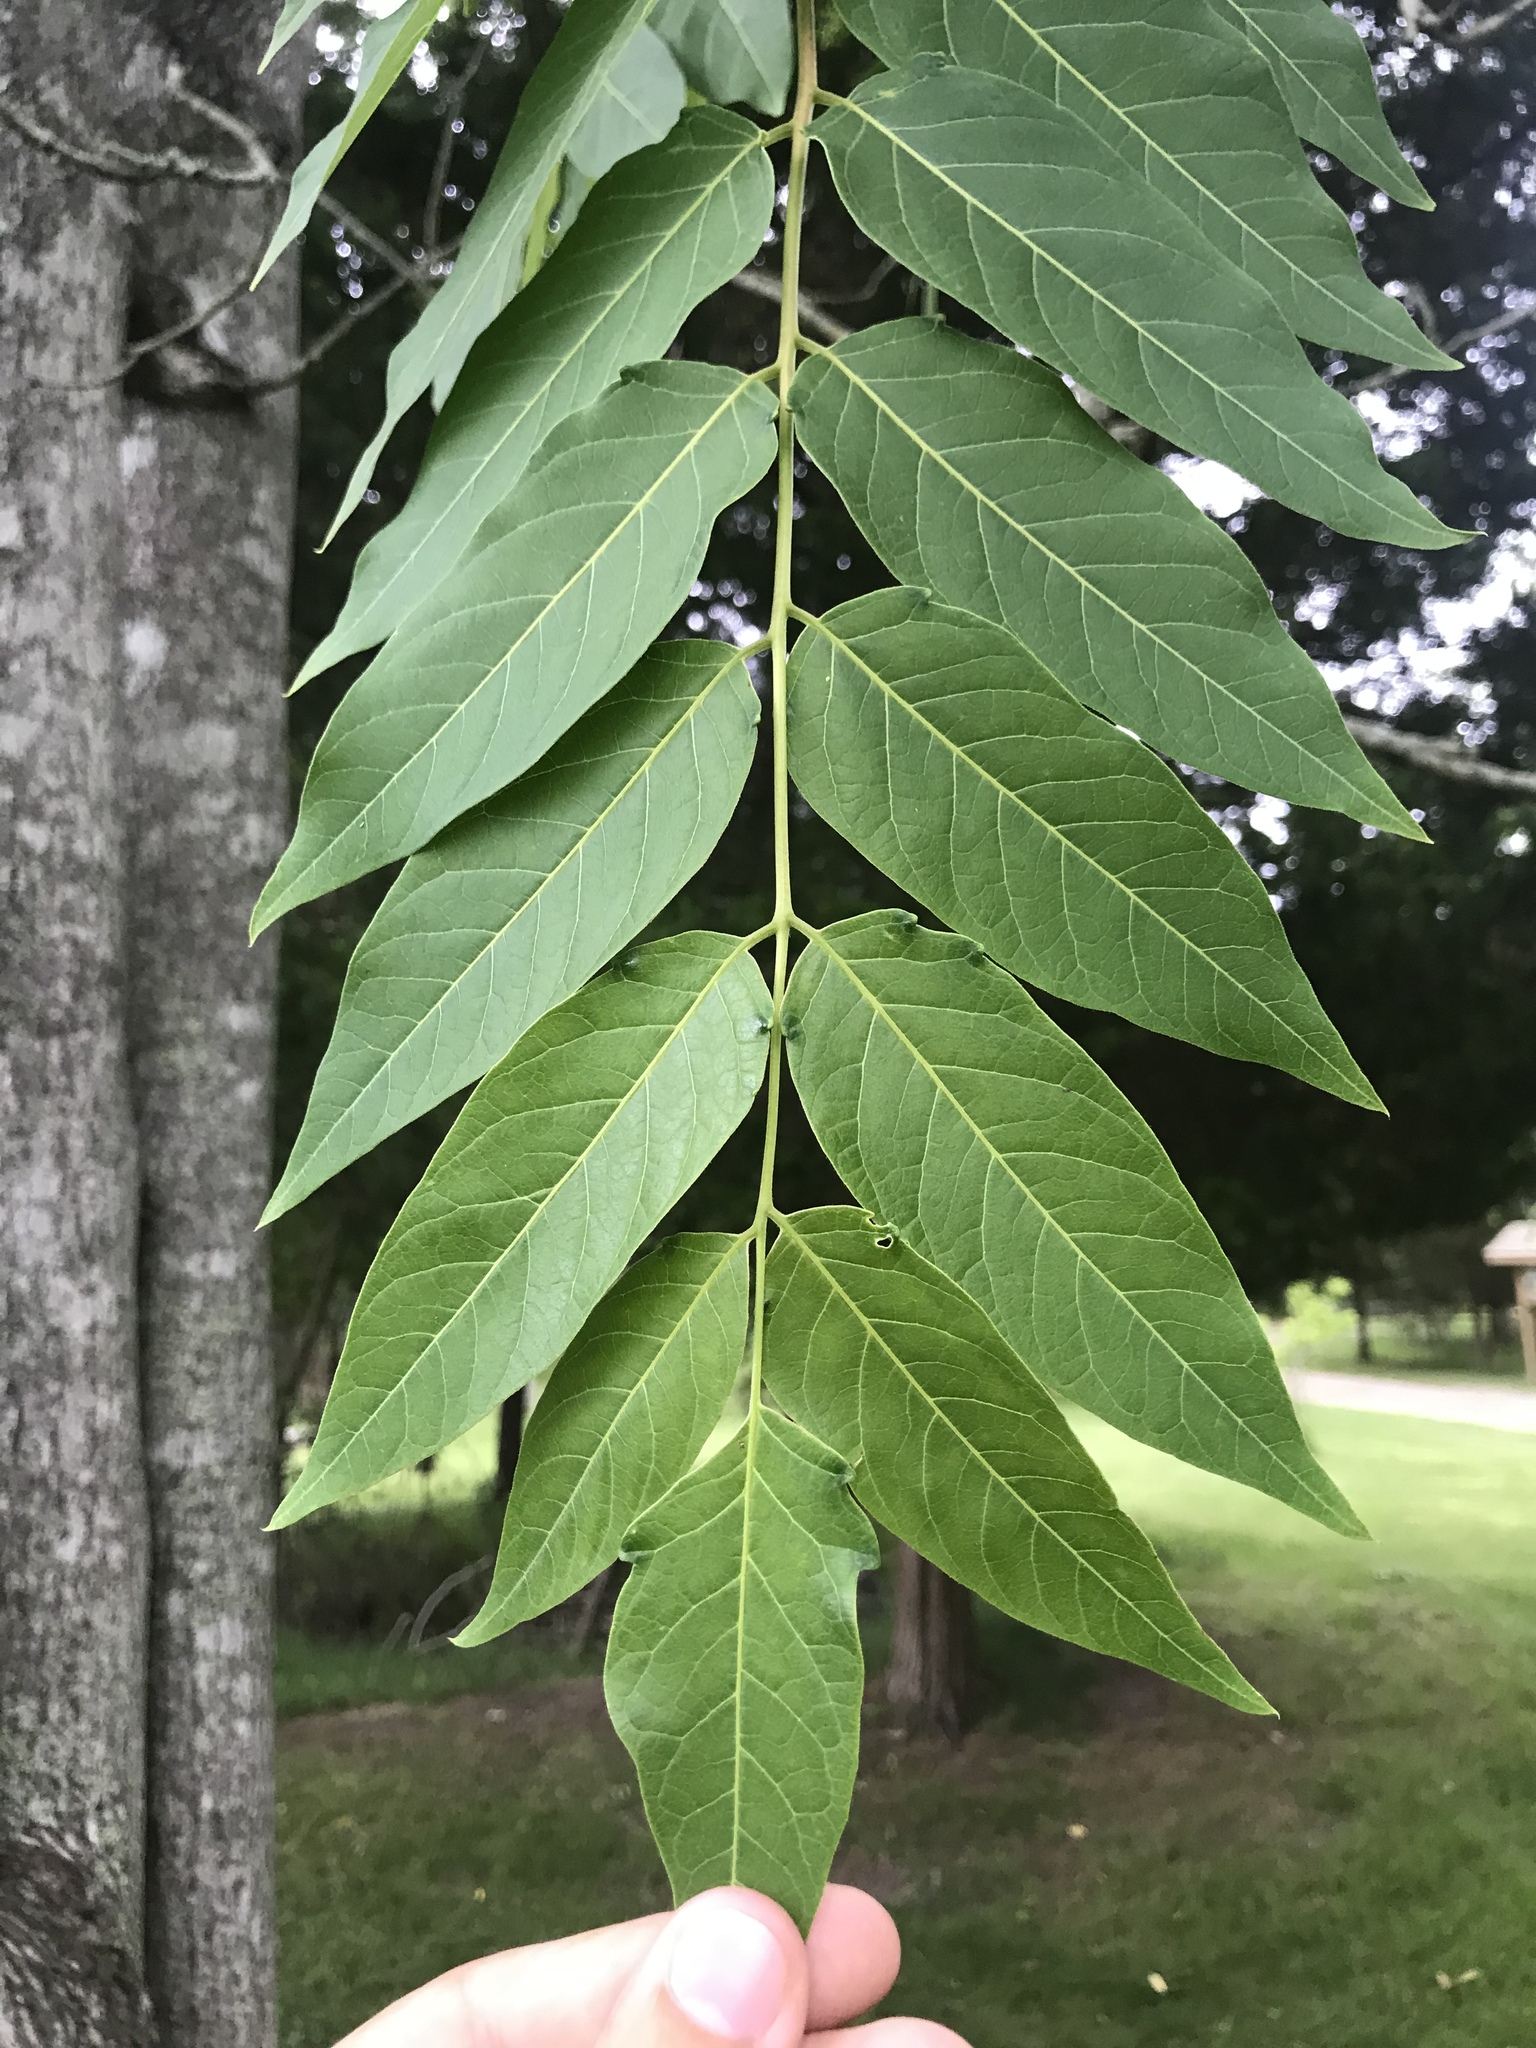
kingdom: Plantae
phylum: Tracheophyta
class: Magnoliopsida
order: Sapindales
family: Simaroubaceae
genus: Ailanthus
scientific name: Ailanthus altissima
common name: Tree-of-heaven
